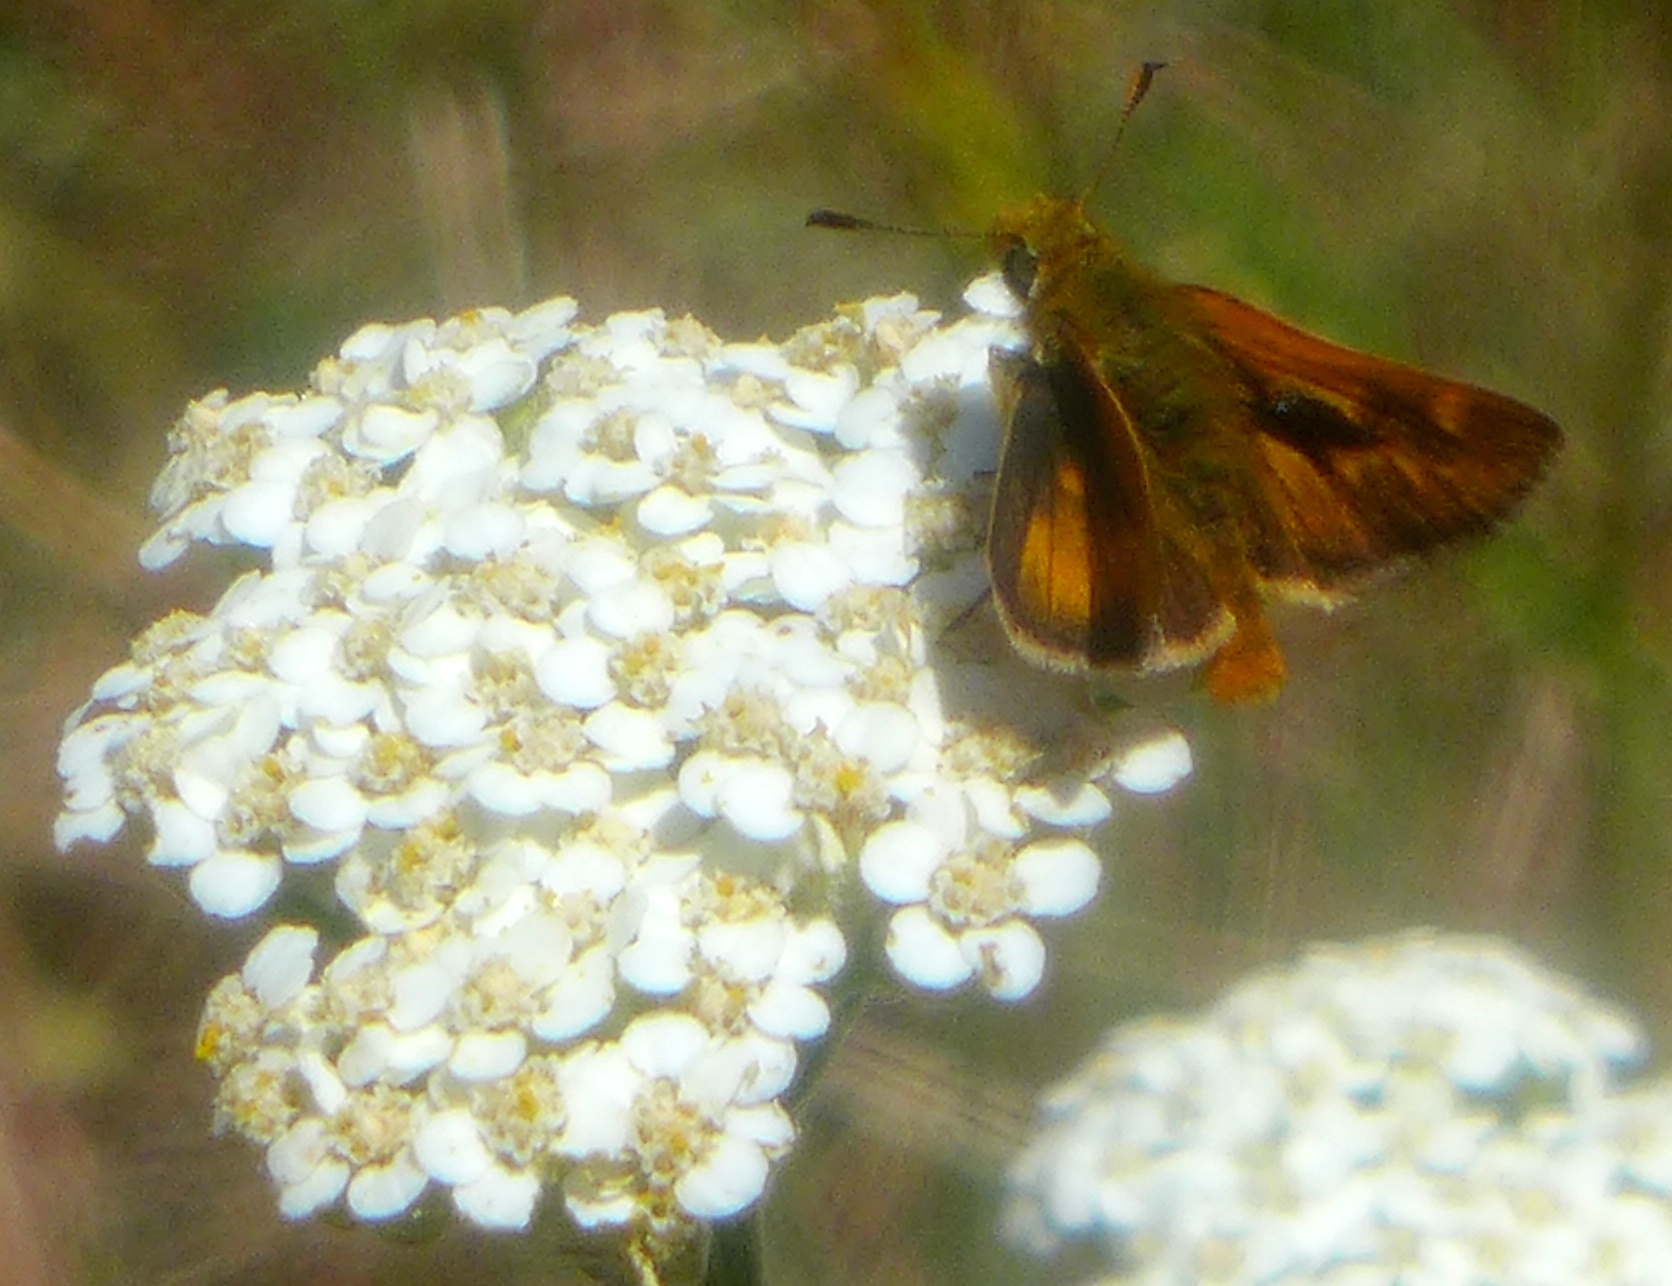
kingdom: Animalia
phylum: Arthropoda
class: Insecta
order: Lepidoptera
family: Hesperiidae
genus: Ochlodes
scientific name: Ochlodes agricola
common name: Rural skipper
